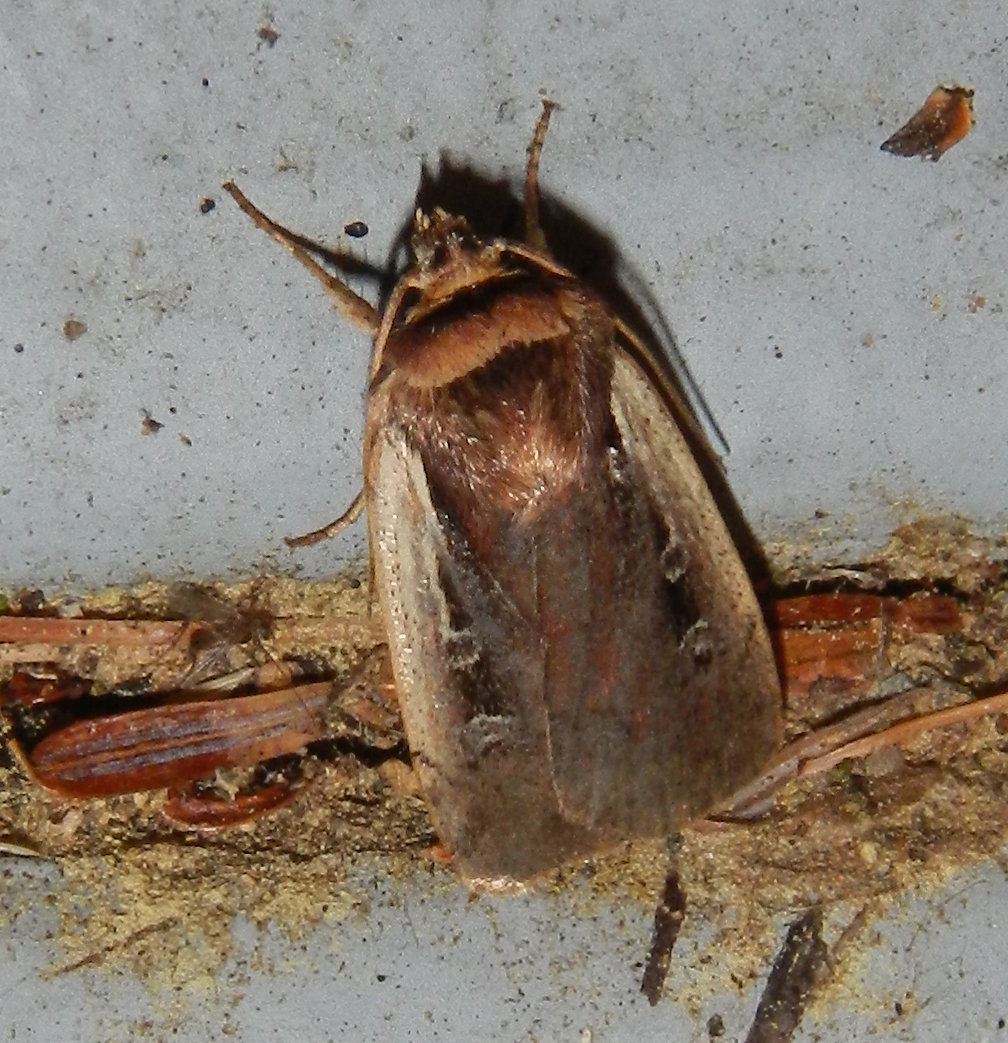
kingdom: Animalia
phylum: Arthropoda
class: Insecta
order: Lepidoptera
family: Noctuidae
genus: Ochropleura
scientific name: Ochropleura implecta
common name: Flame-shouldered dart
